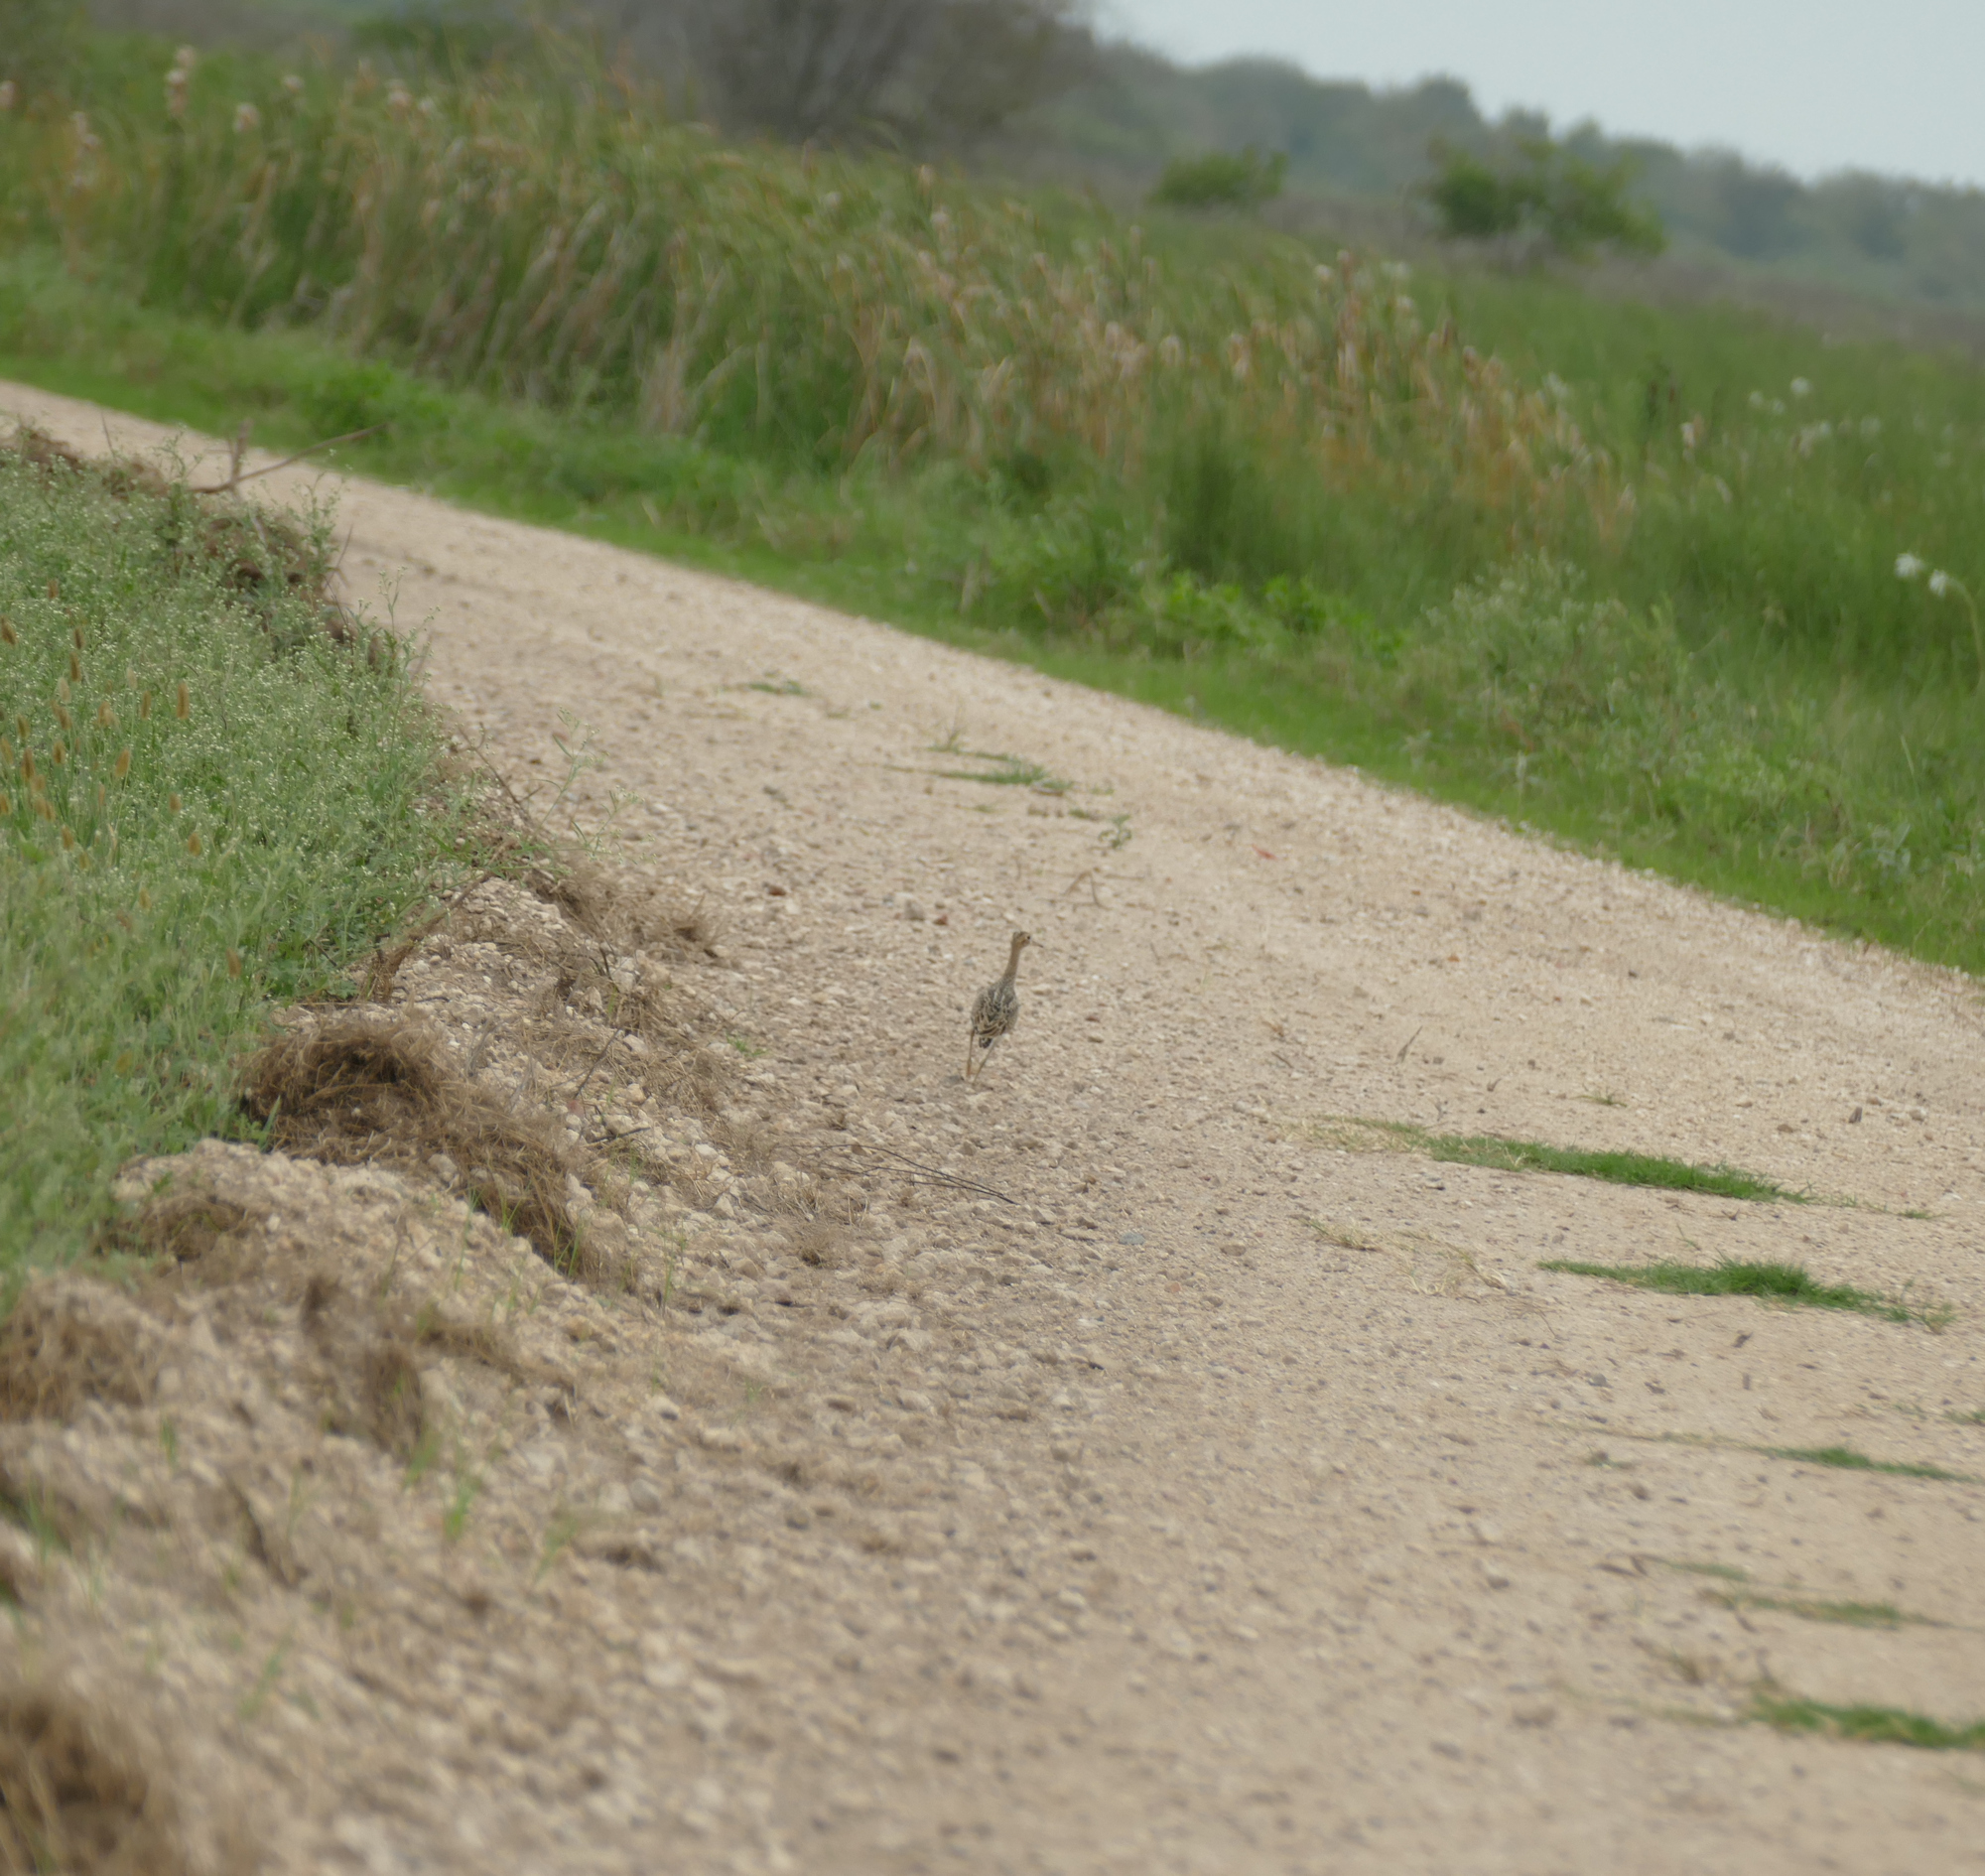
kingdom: Animalia
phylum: Chordata
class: Aves
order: Charadriiformes
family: Scolopacidae
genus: Bartramia
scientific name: Bartramia longicauda
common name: Upland sandpiper
